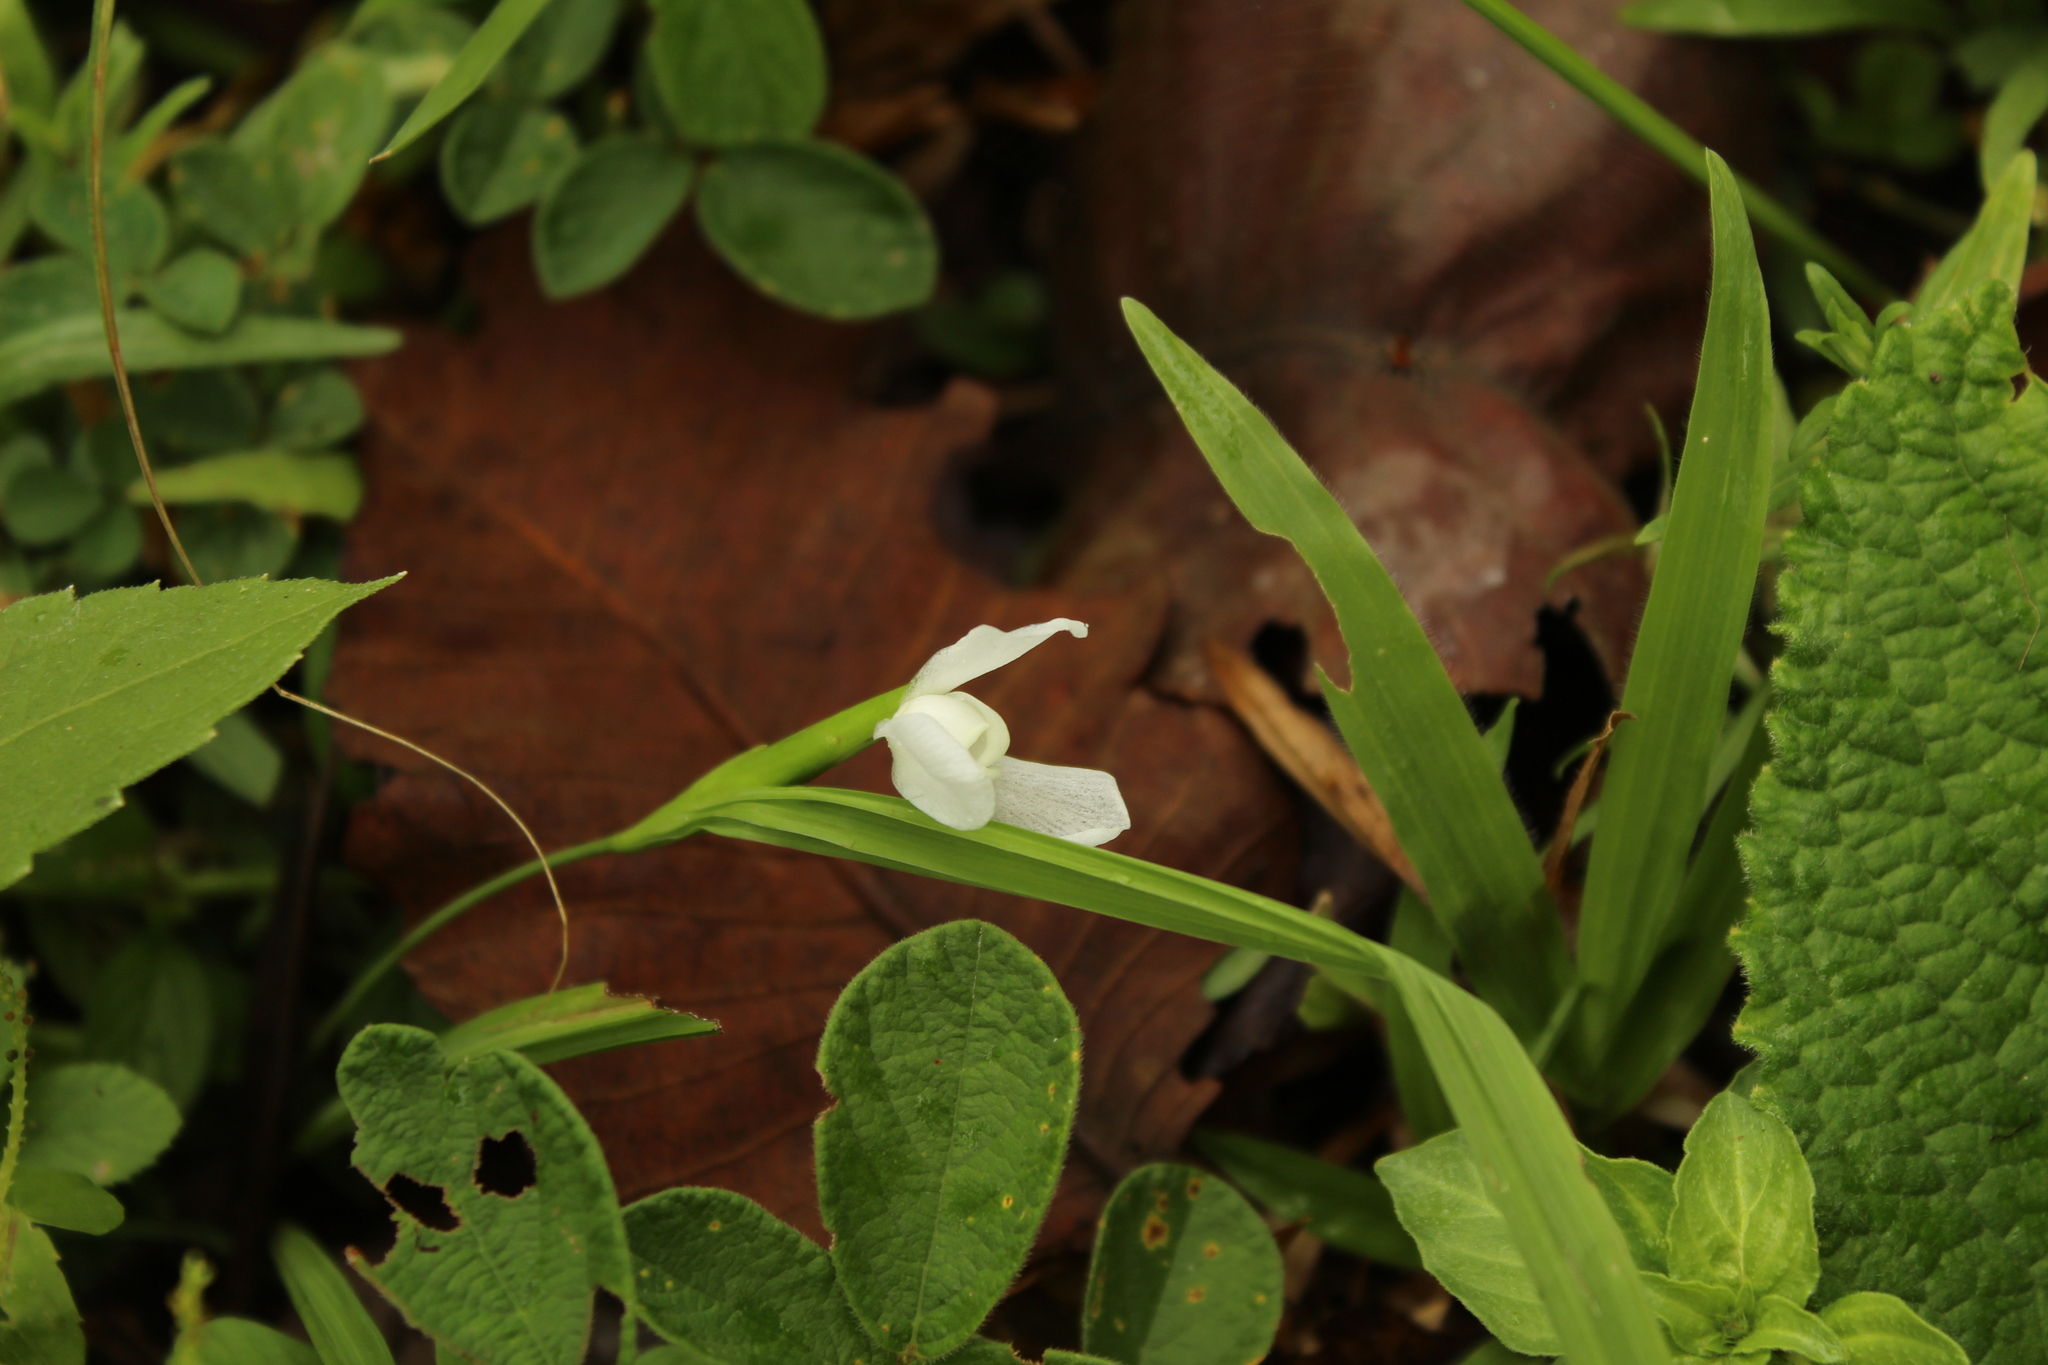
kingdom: Plantae
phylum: Tracheophyta
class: Liliopsida
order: Asparagales
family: Iridaceae
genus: Cipura
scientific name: Cipura paludosa
